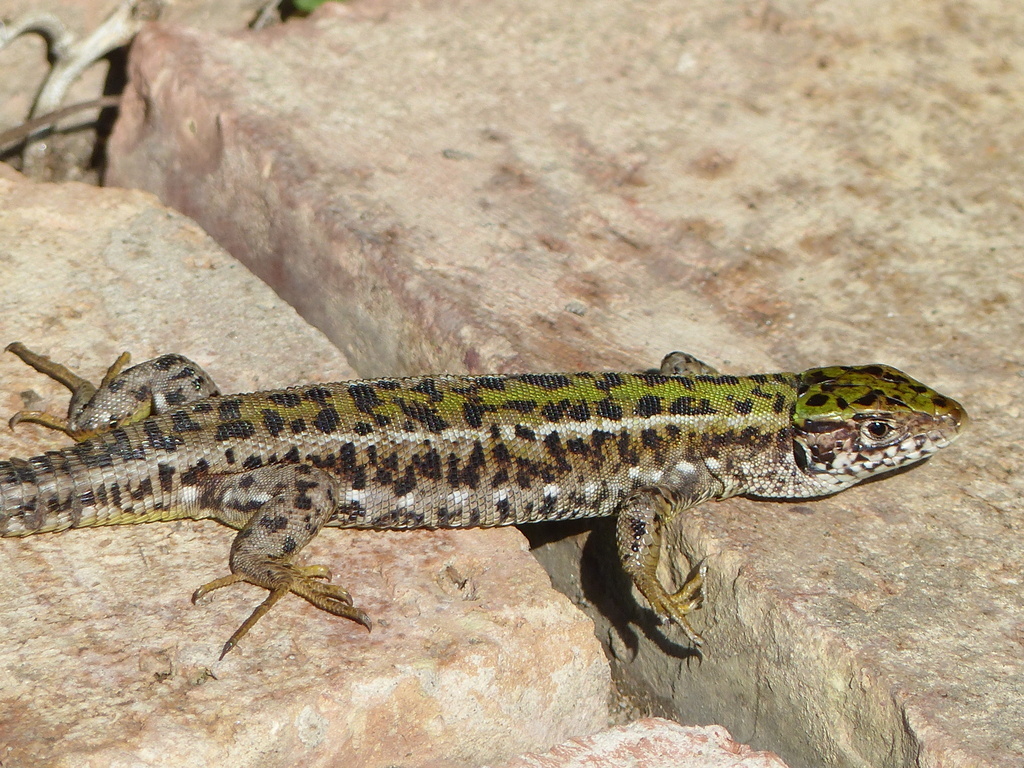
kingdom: Animalia
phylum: Chordata
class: Squamata
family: Lacertidae
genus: Lacerta
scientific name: Lacerta viridis
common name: European green lizard
